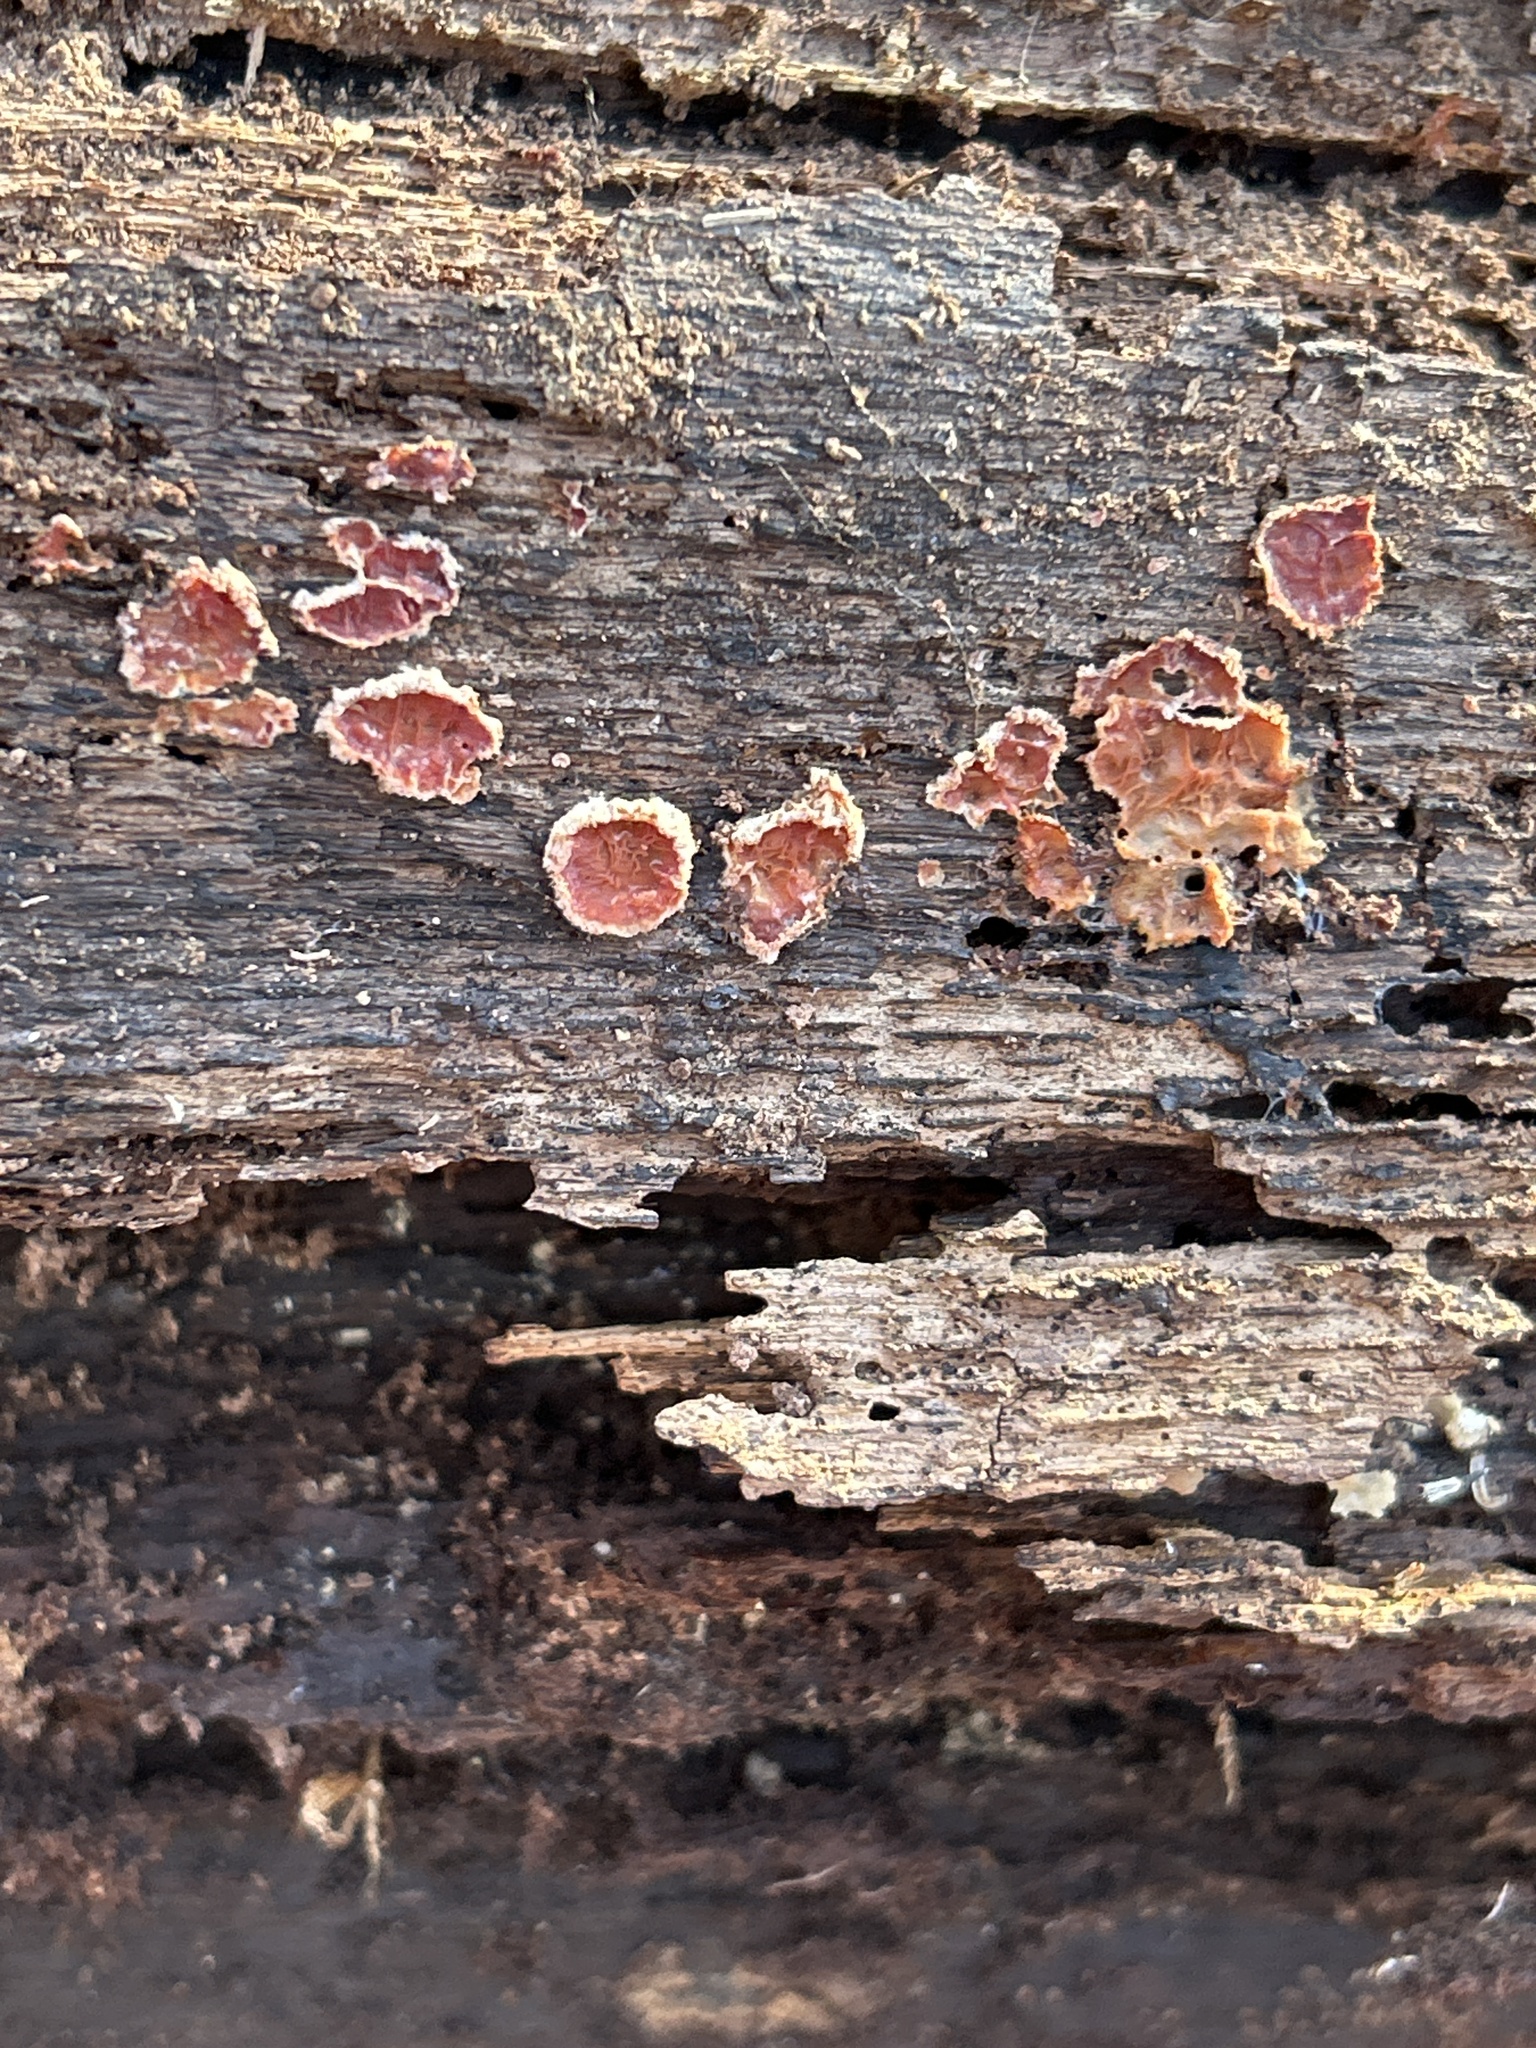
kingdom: Fungi
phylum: Basidiomycota
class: Agaricomycetes
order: Polyporales
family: Meruliaceae
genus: Phlebia
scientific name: Phlebia tremellosa
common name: Jelly rot
